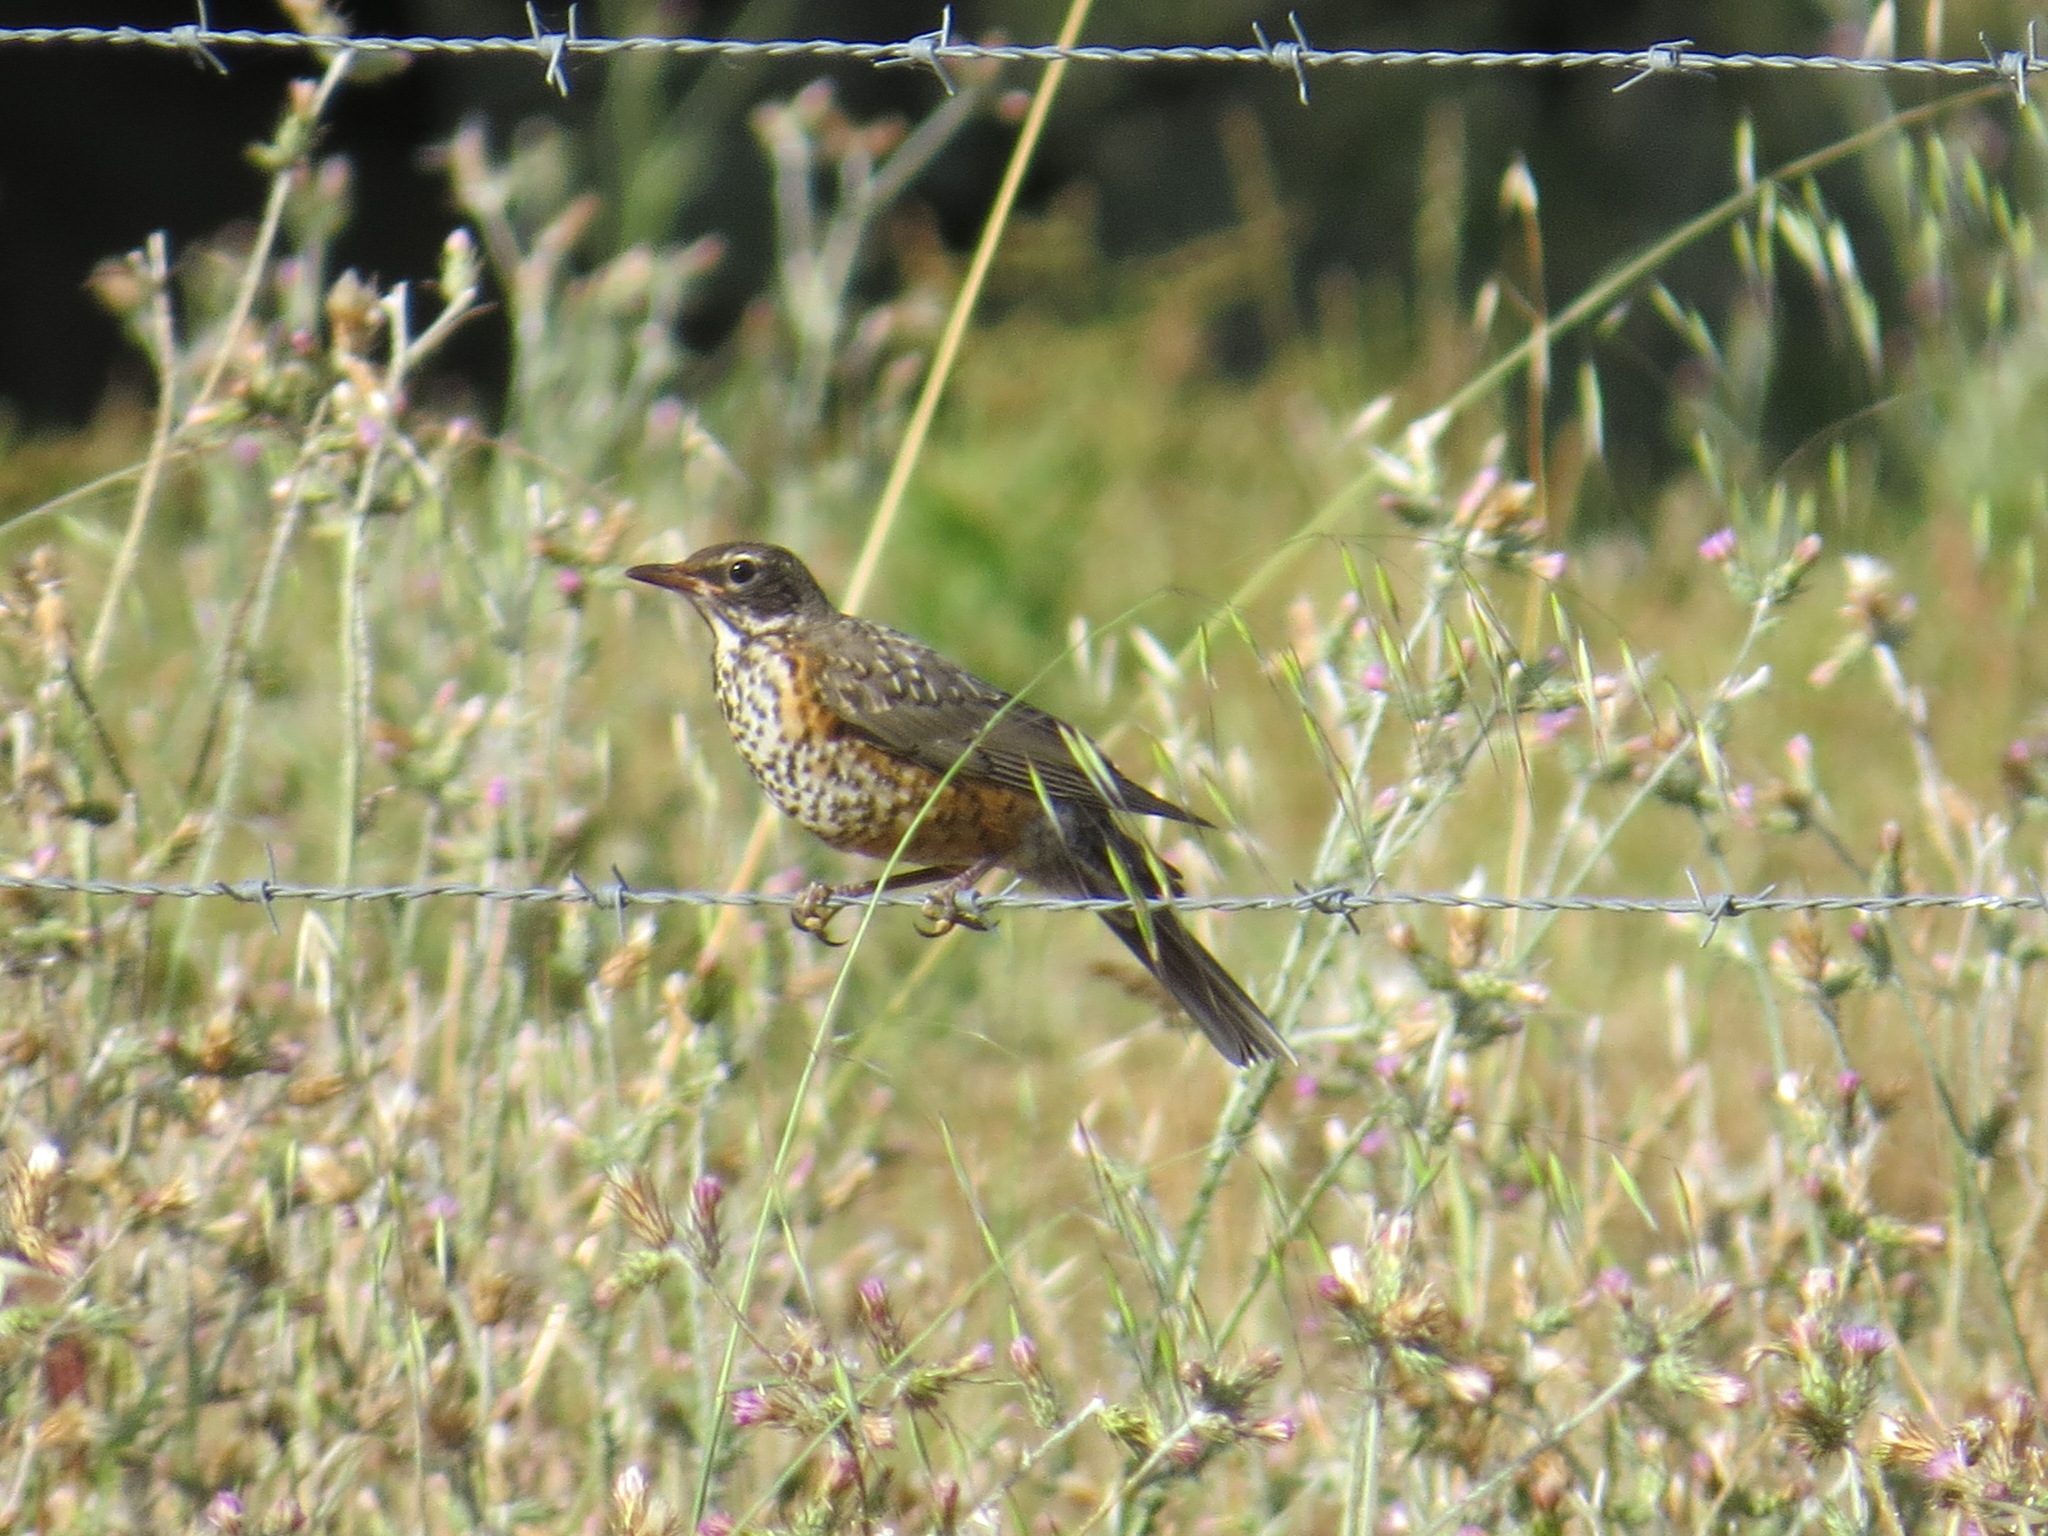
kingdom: Animalia
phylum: Chordata
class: Aves
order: Passeriformes
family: Turdidae
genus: Turdus
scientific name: Turdus migratorius
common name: American robin
